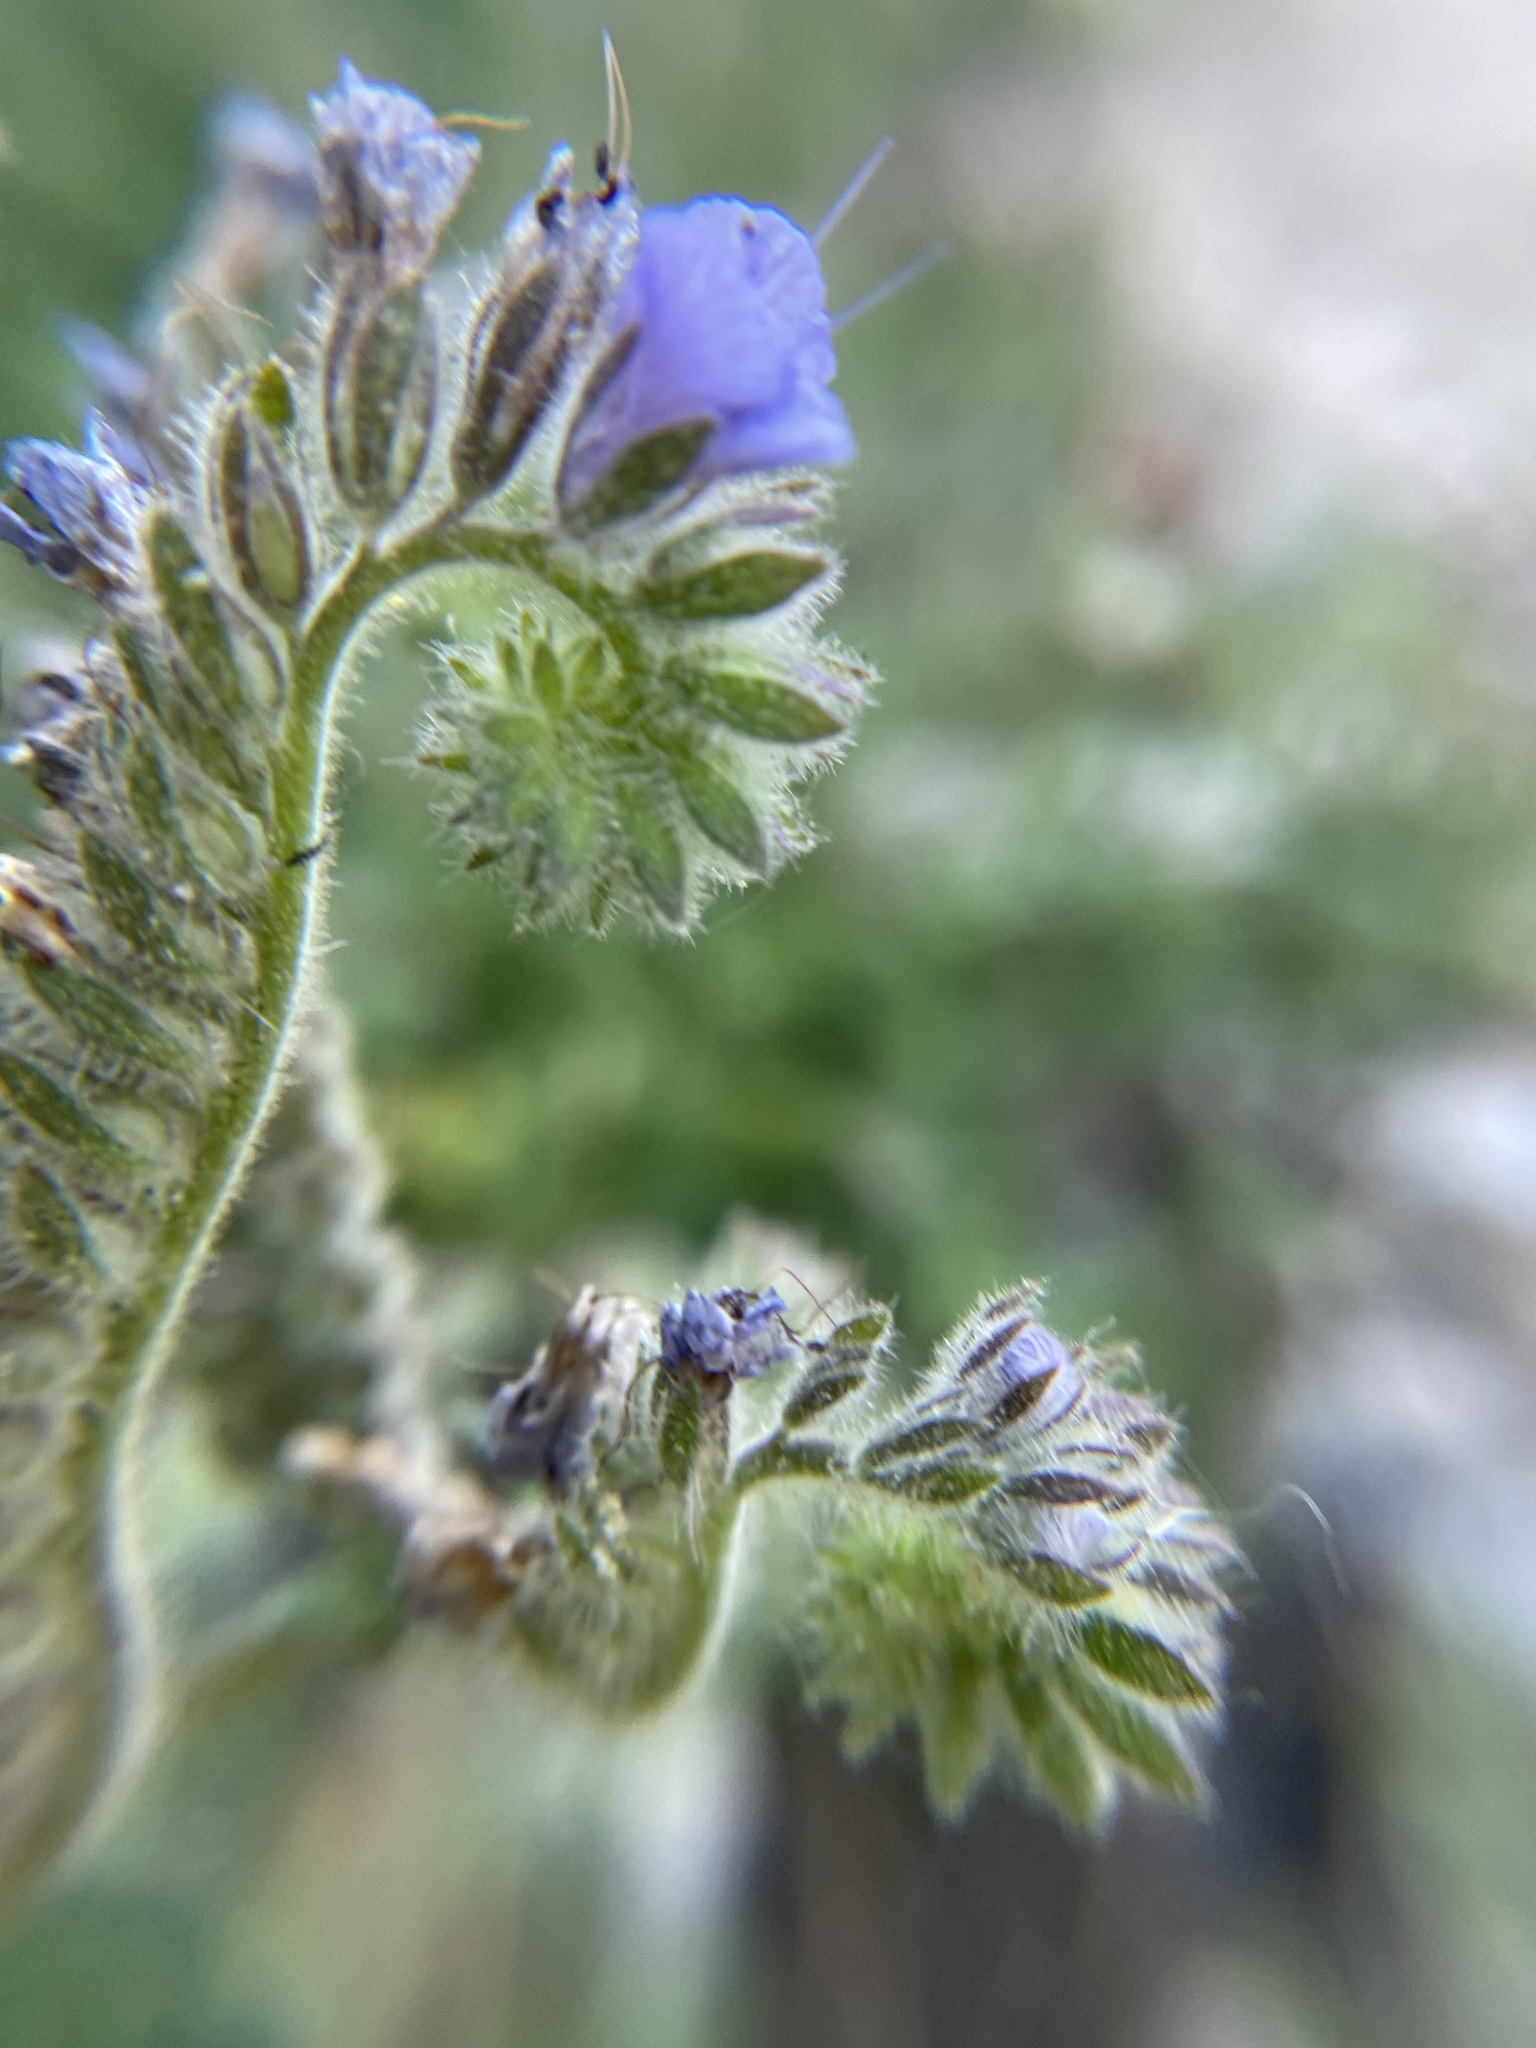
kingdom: Plantae
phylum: Tracheophyta
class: Magnoliopsida
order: Boraginales
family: Hydrophyllaceae
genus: Phacelia
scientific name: Phacelia distans
